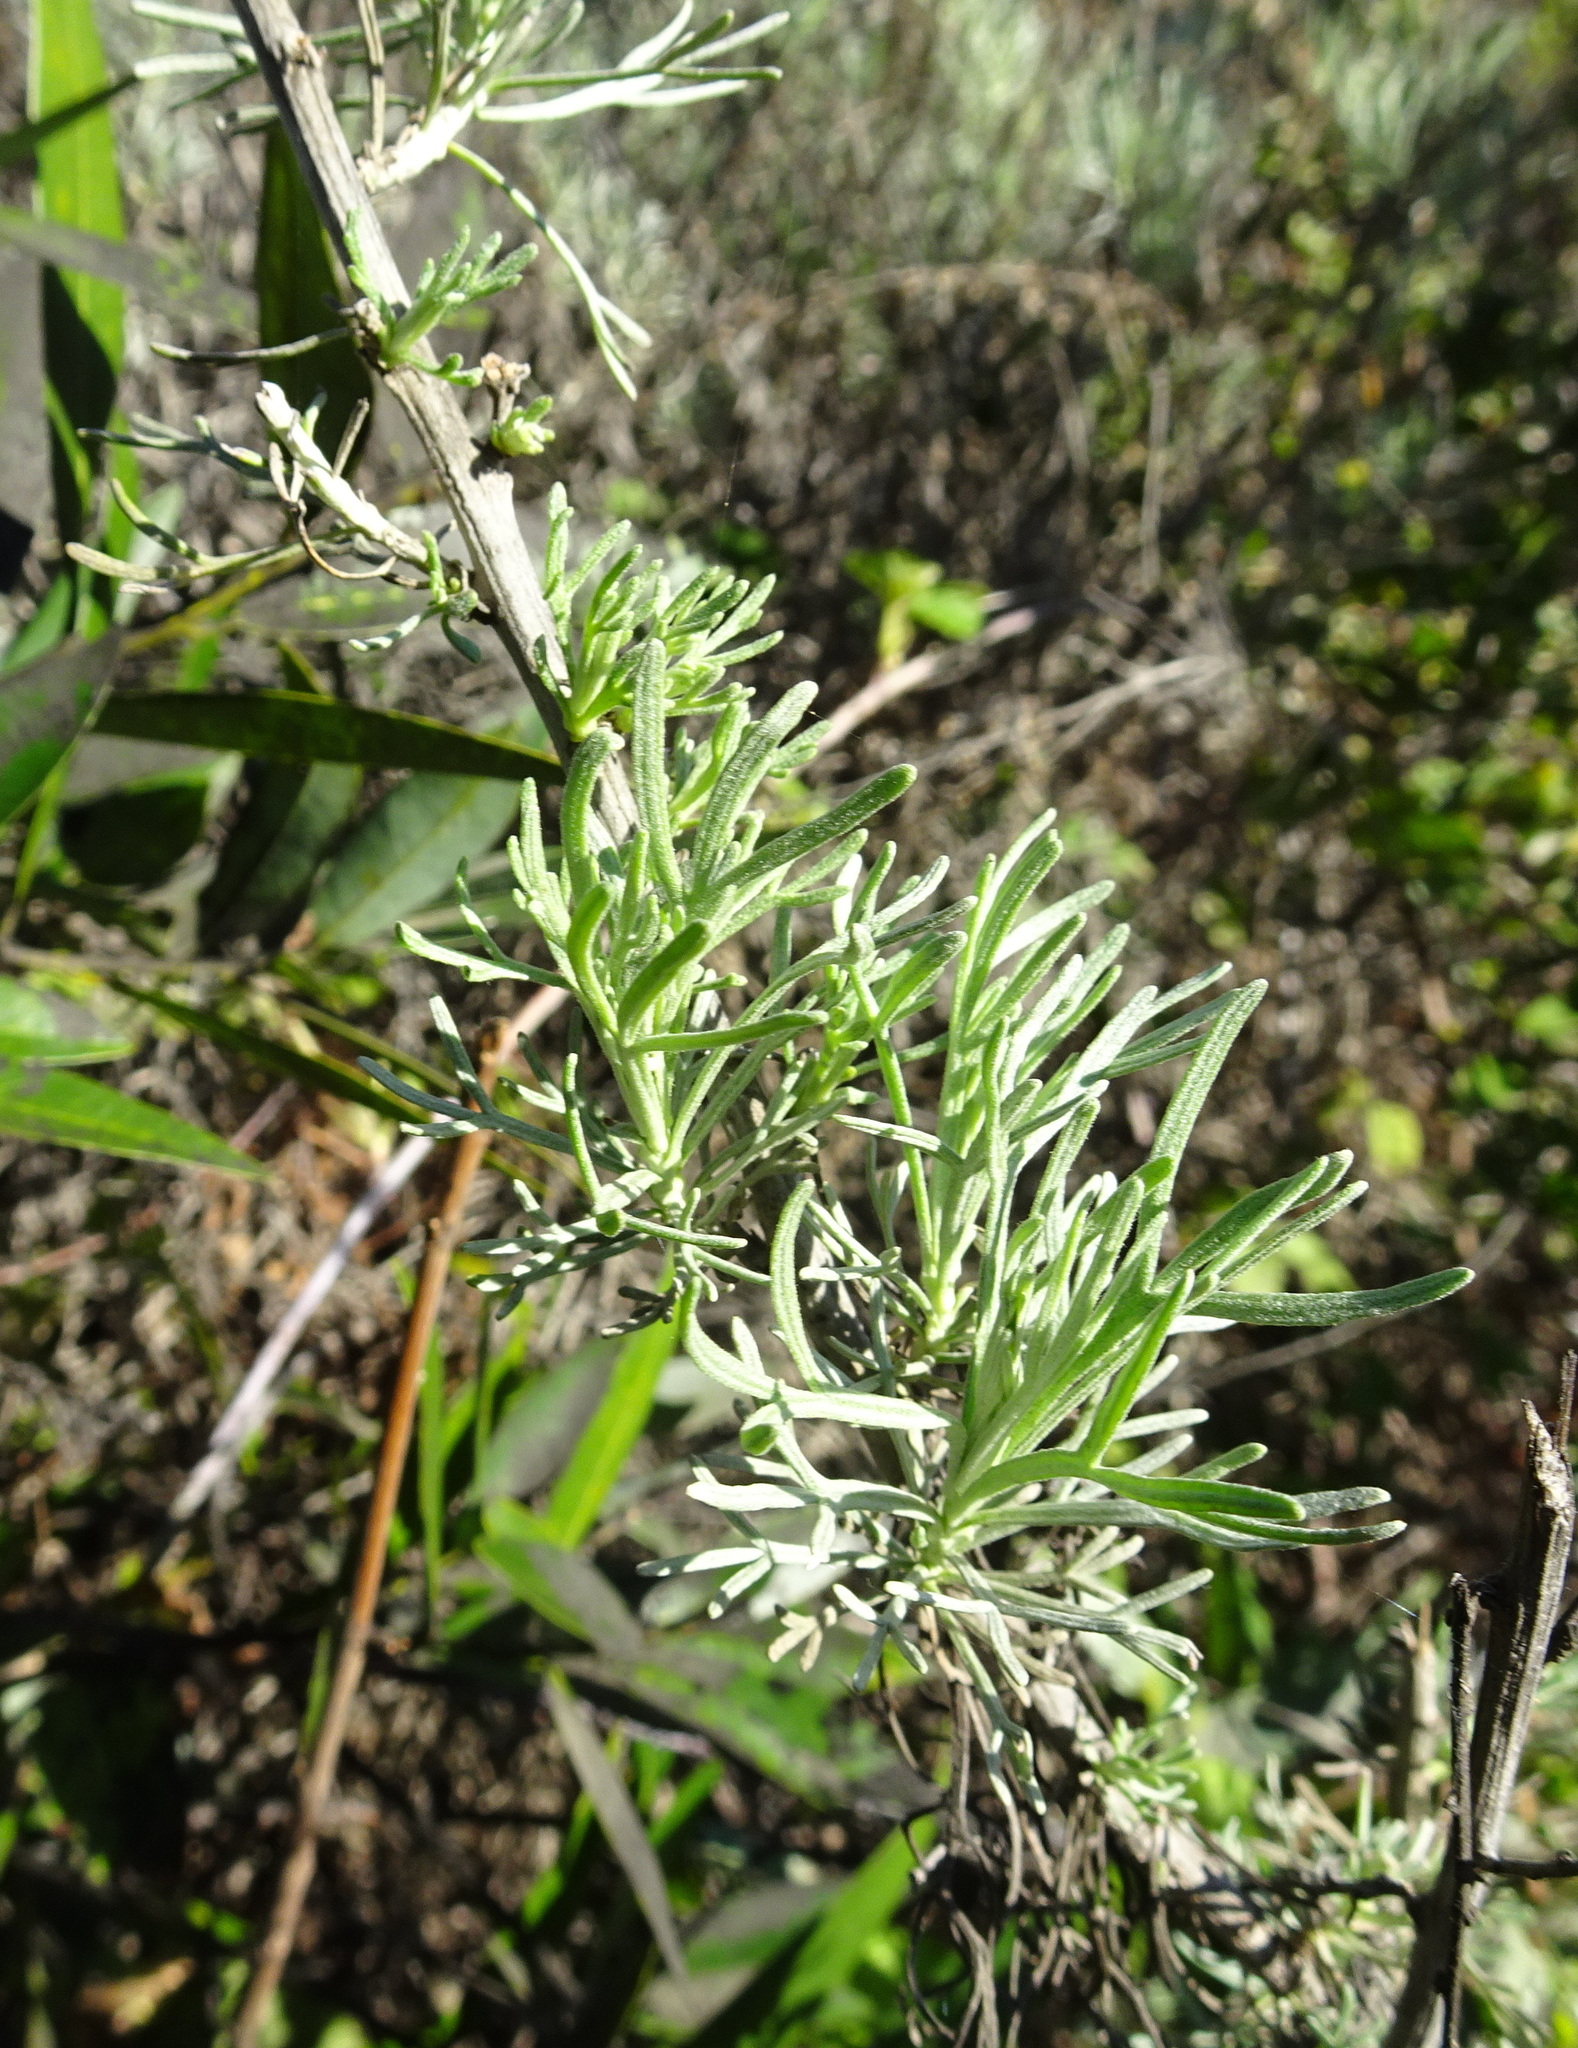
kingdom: Plantae
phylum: Tracheophyta
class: Magnoliopsida
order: Asterales
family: Asteraceae
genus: Artemisia
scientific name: Artemisia californica
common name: California sagebrush
